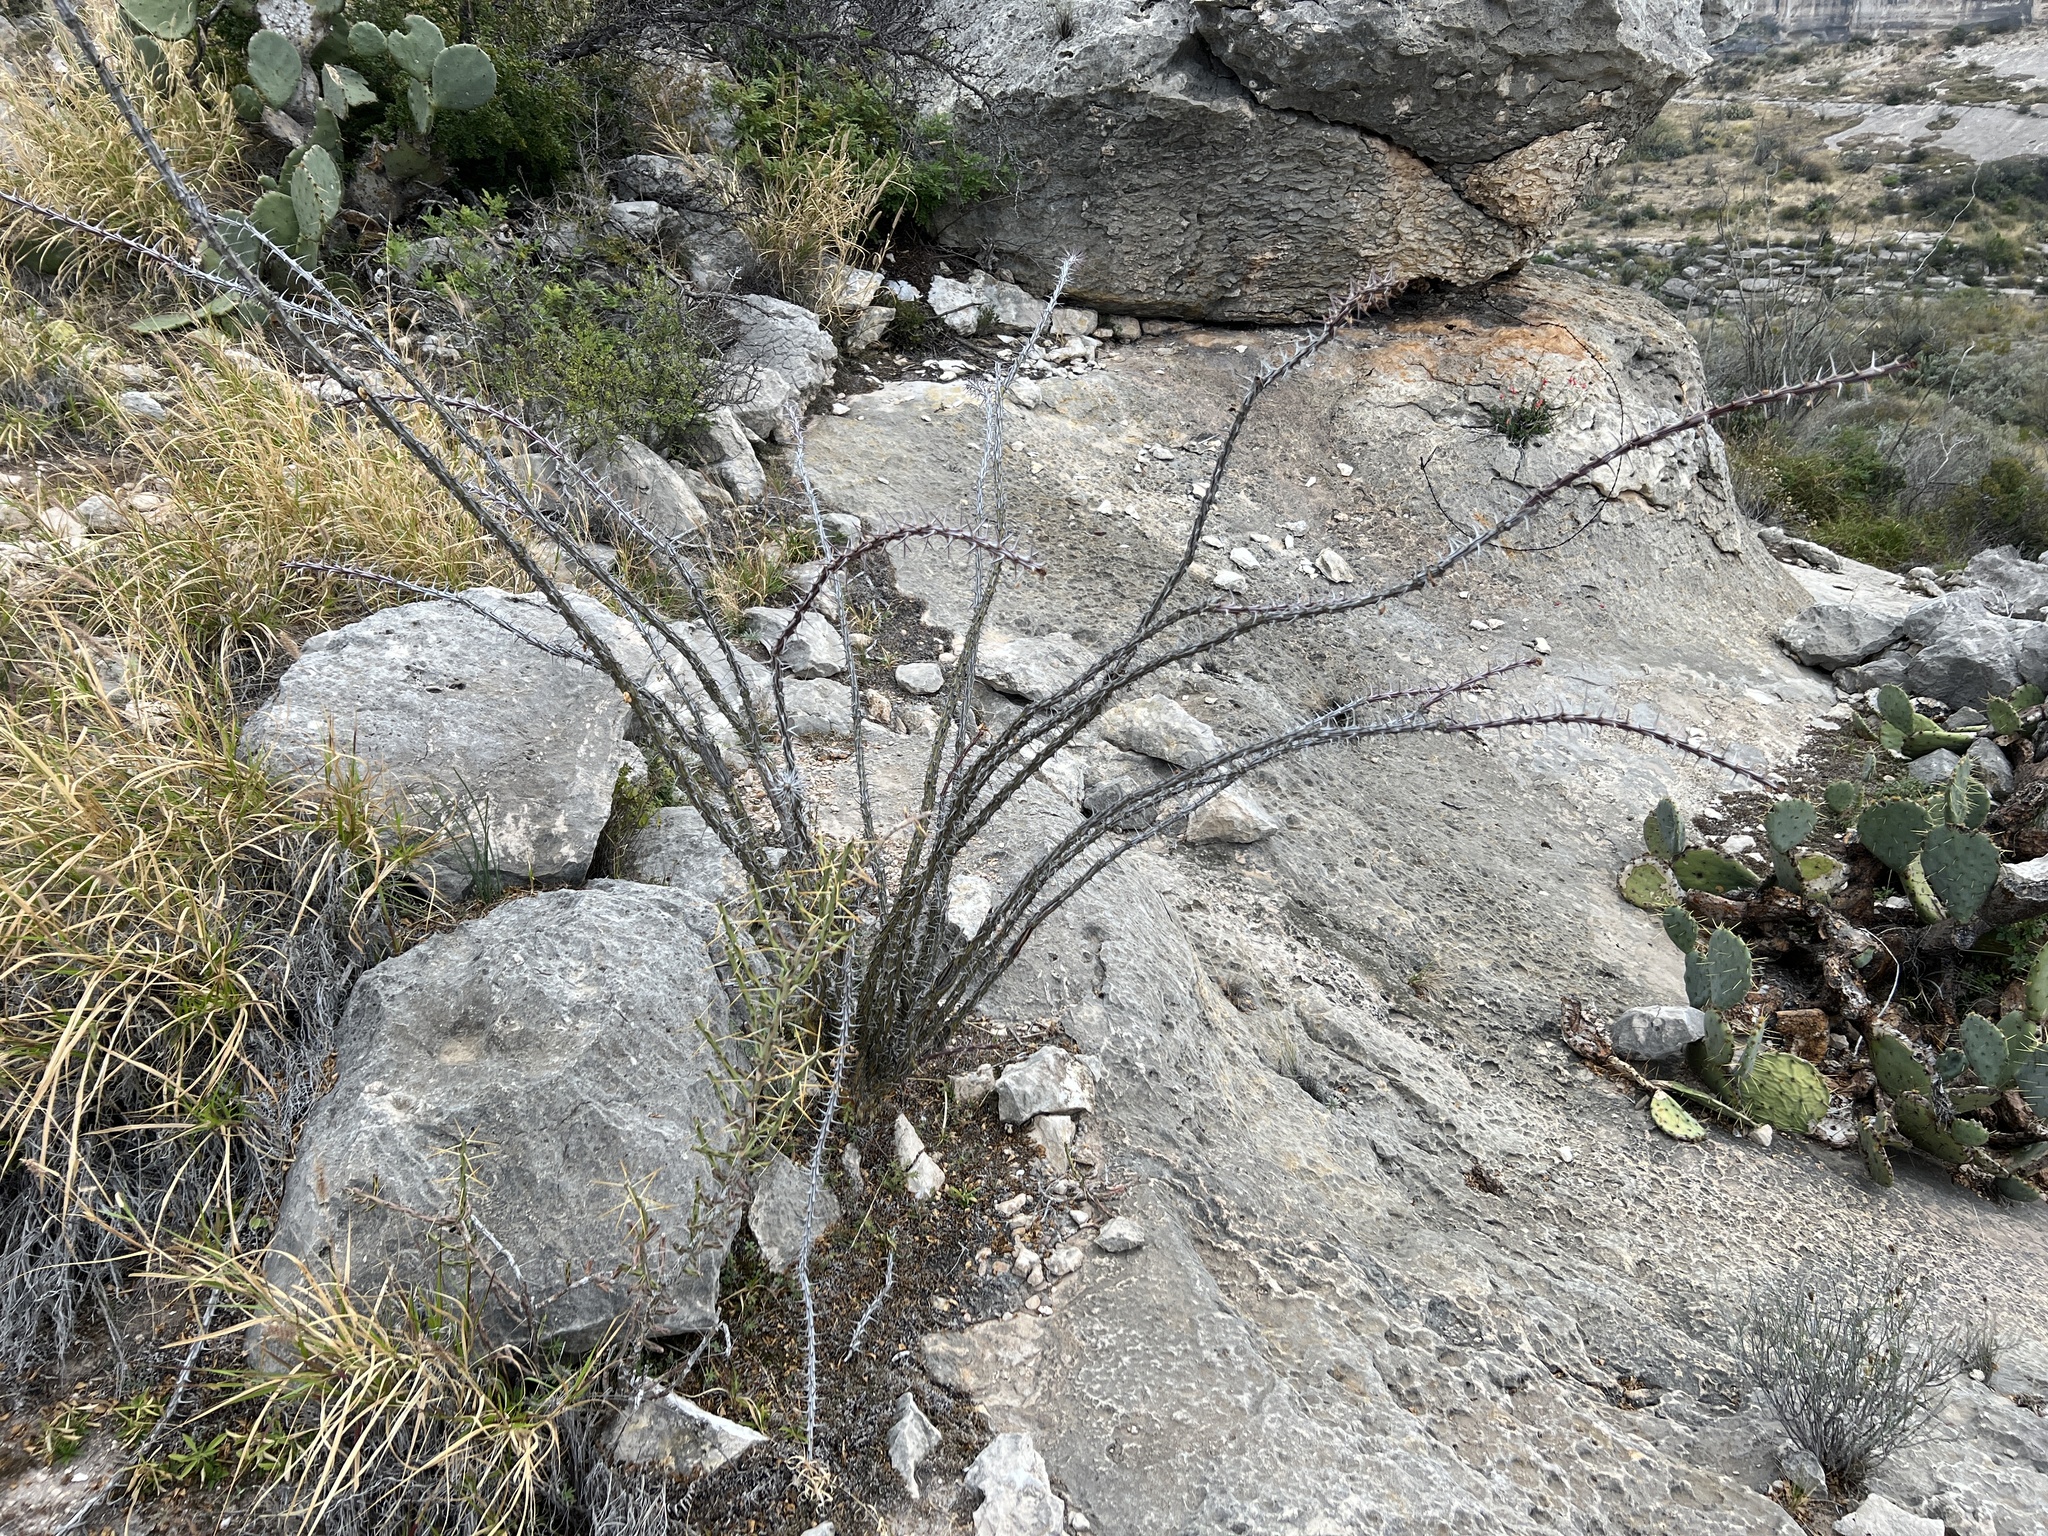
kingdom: Plantae
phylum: Tracheophyta
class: Magnoliopsida
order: Ericales
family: Fouquieriaceae
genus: Fouquieria
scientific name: Fouquieria splendens
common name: Vine-cactus
